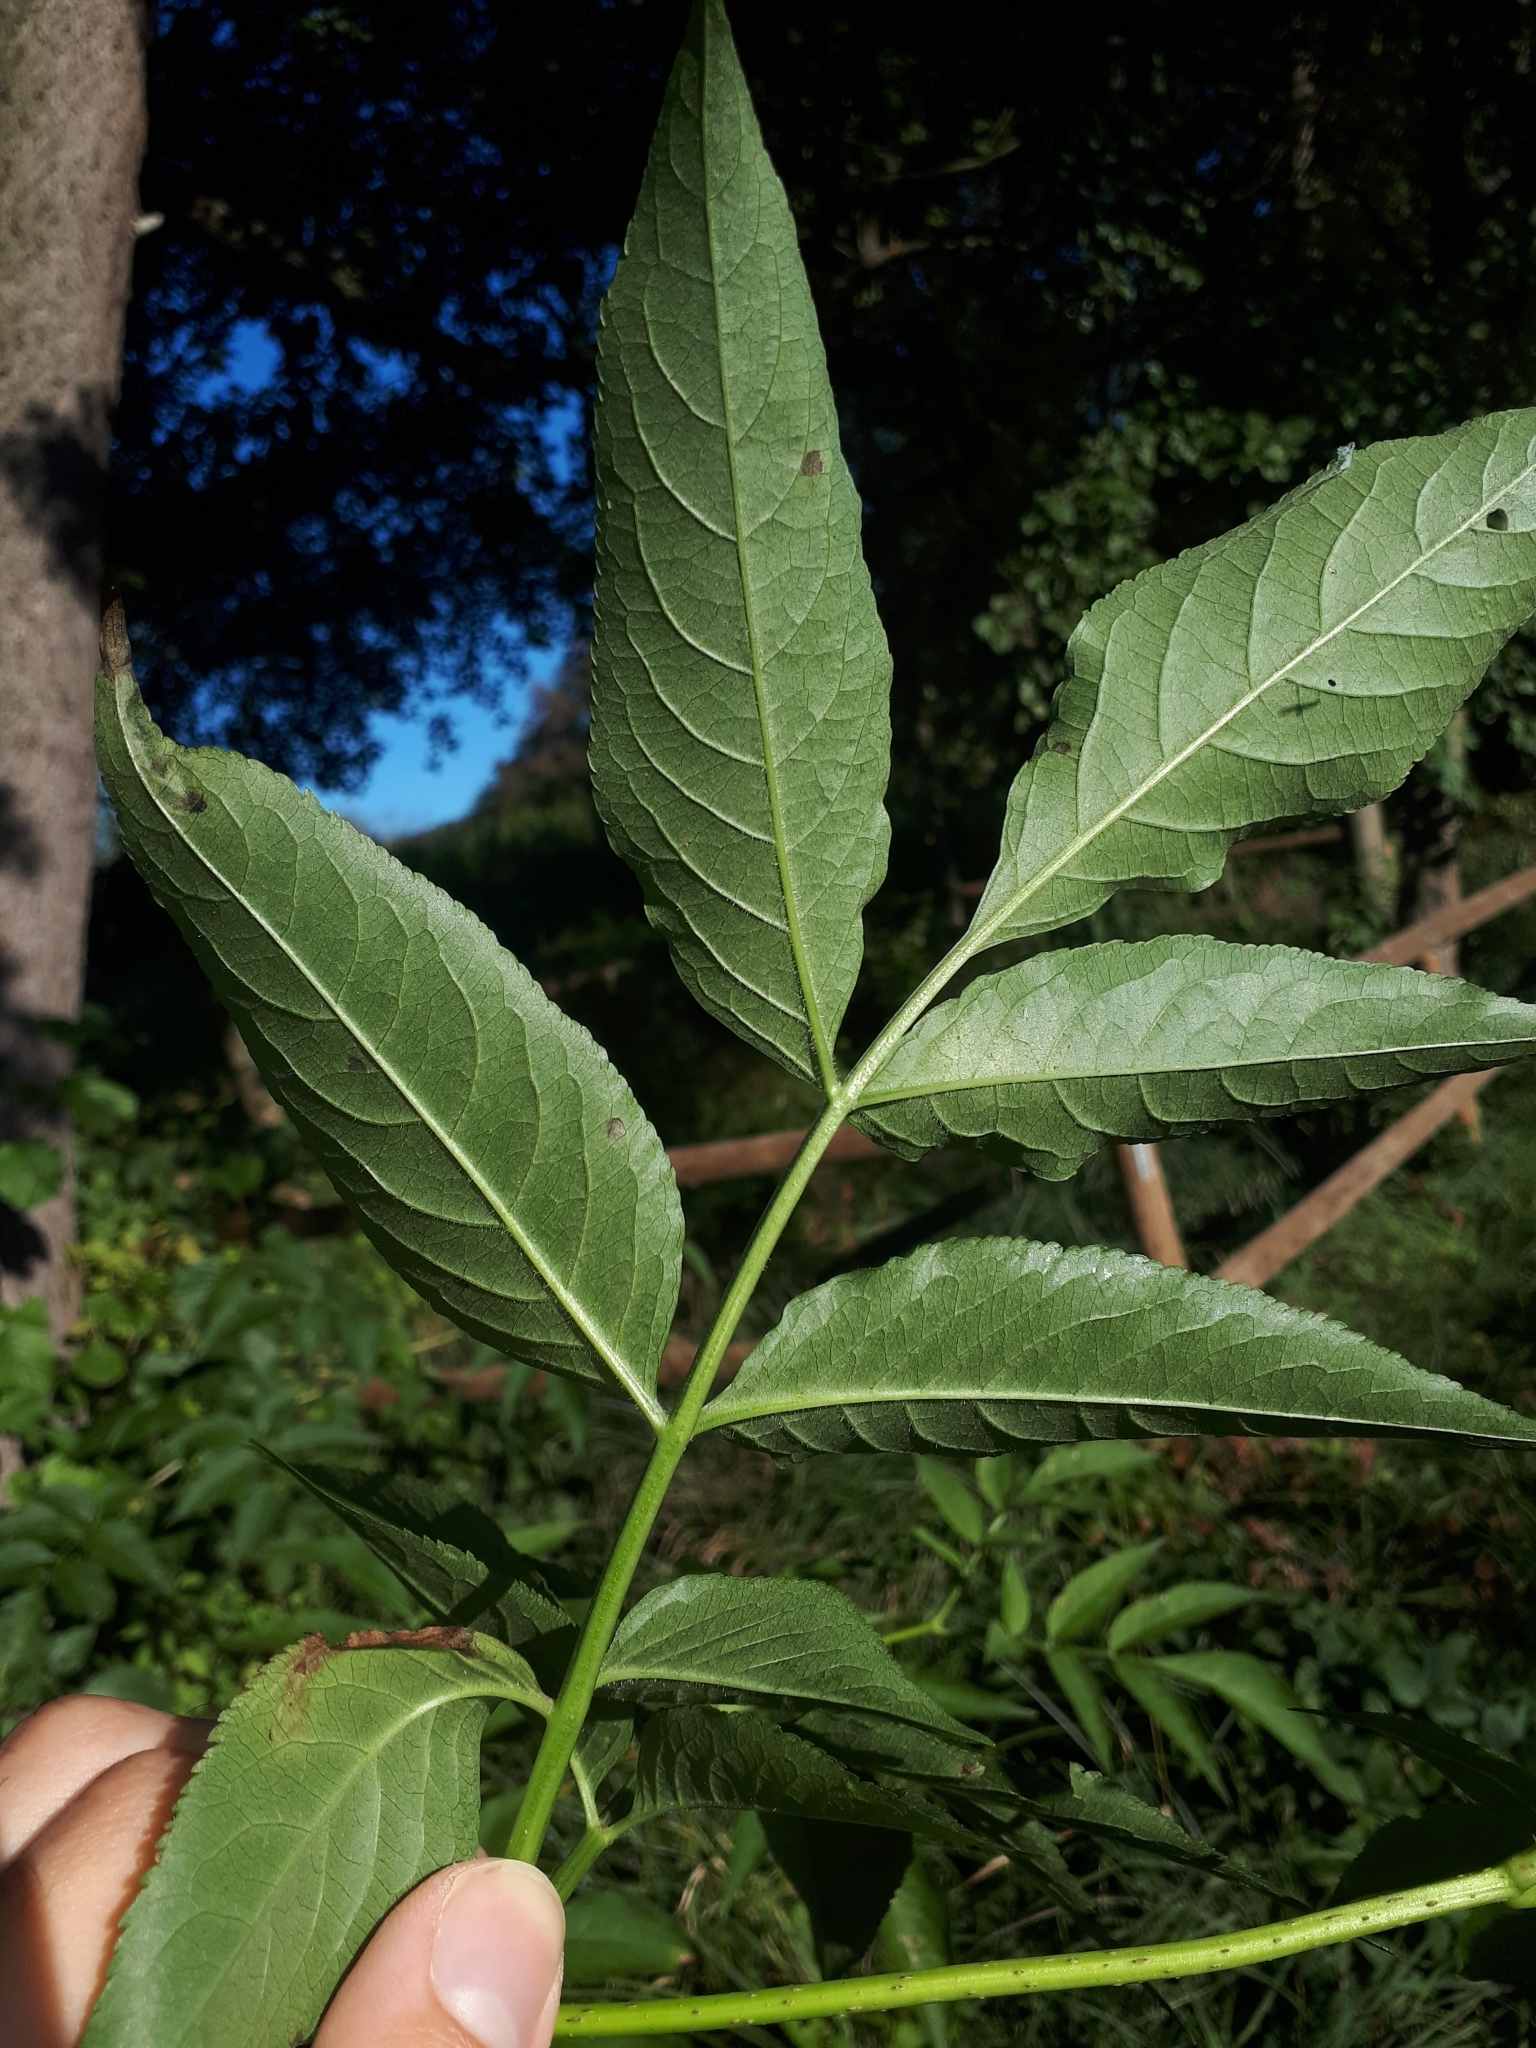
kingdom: Plantae
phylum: Tracheophyta
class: Magnoliopsida
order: Dipsacales
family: Viburnaceae
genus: Sambucus
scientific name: Sambucus nigra
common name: Elder
